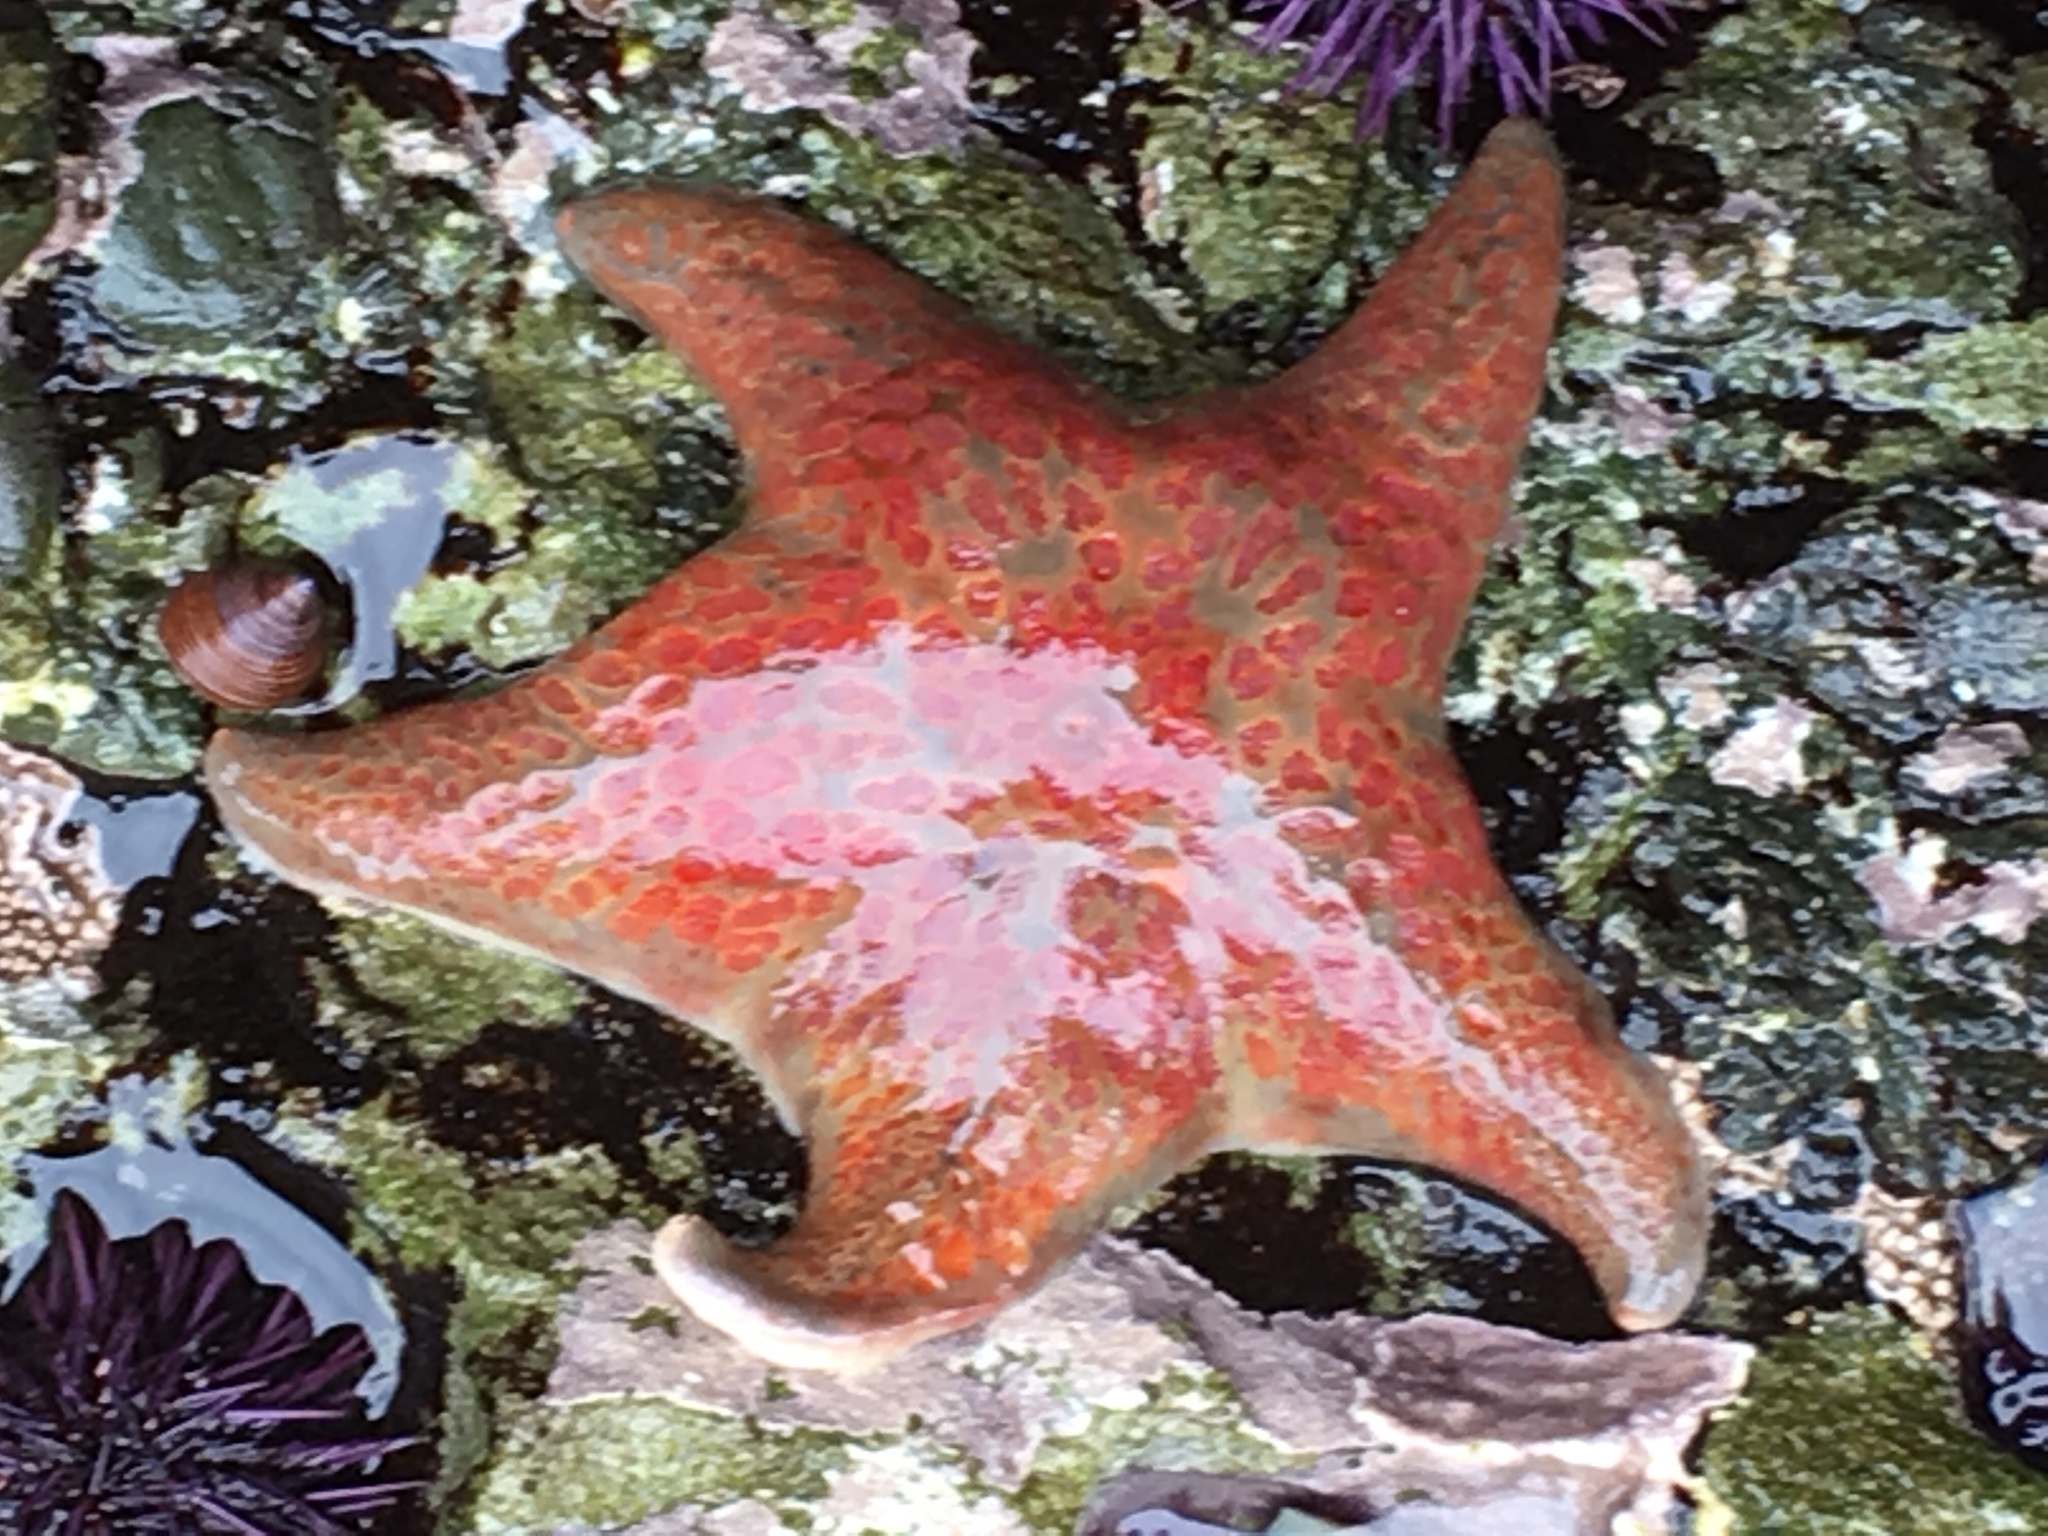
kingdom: Animalia
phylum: Echinodermata
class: Asteroidea
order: Valvatida
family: Asteropseidae
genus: Dermasterias
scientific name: Dermasterias imbricata
